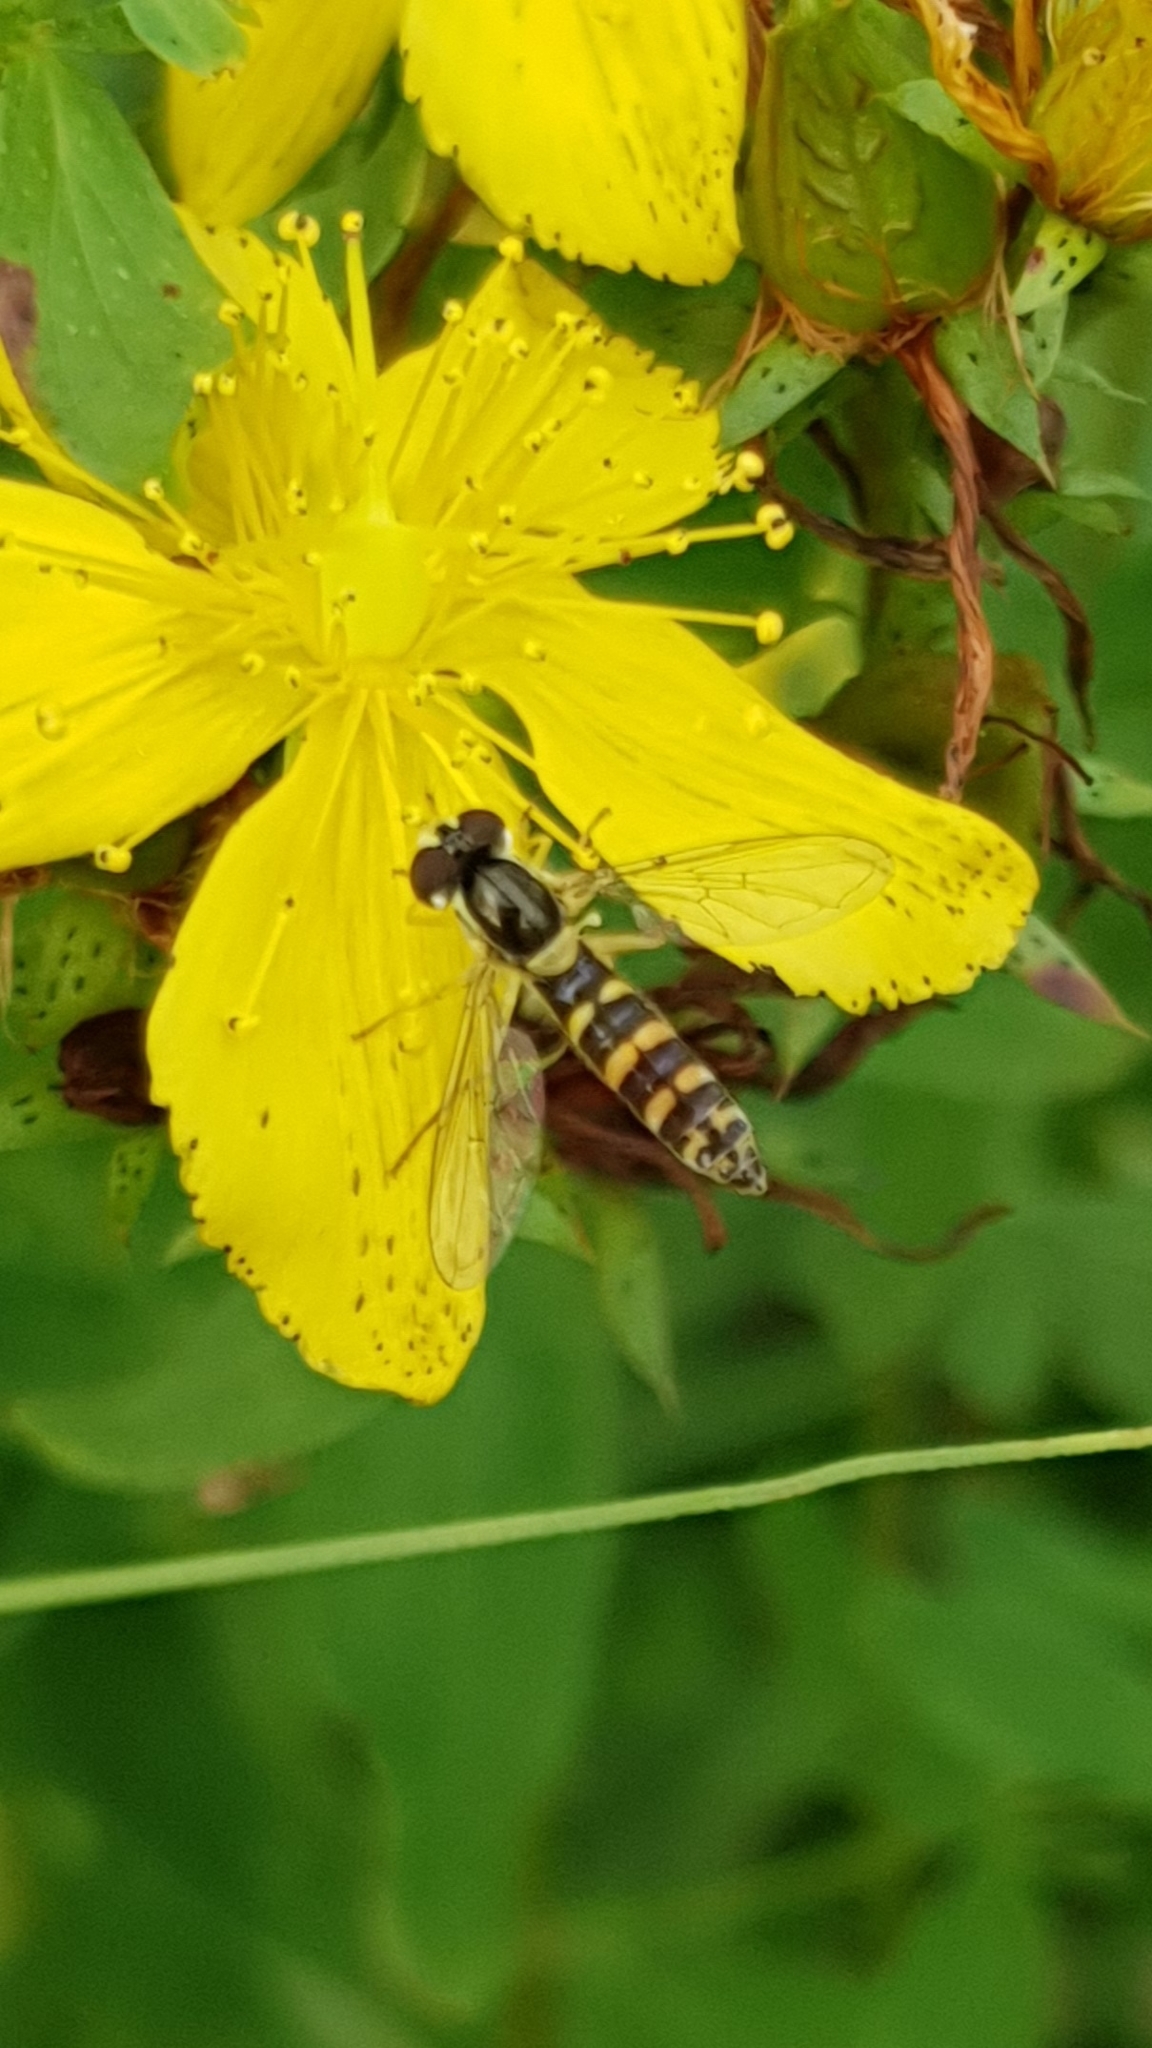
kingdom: Animalia
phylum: Arthropoda
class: Insecta
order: Diptera
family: Syrphidae
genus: Sphaerophoria
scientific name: Sphaerophoria scripta
